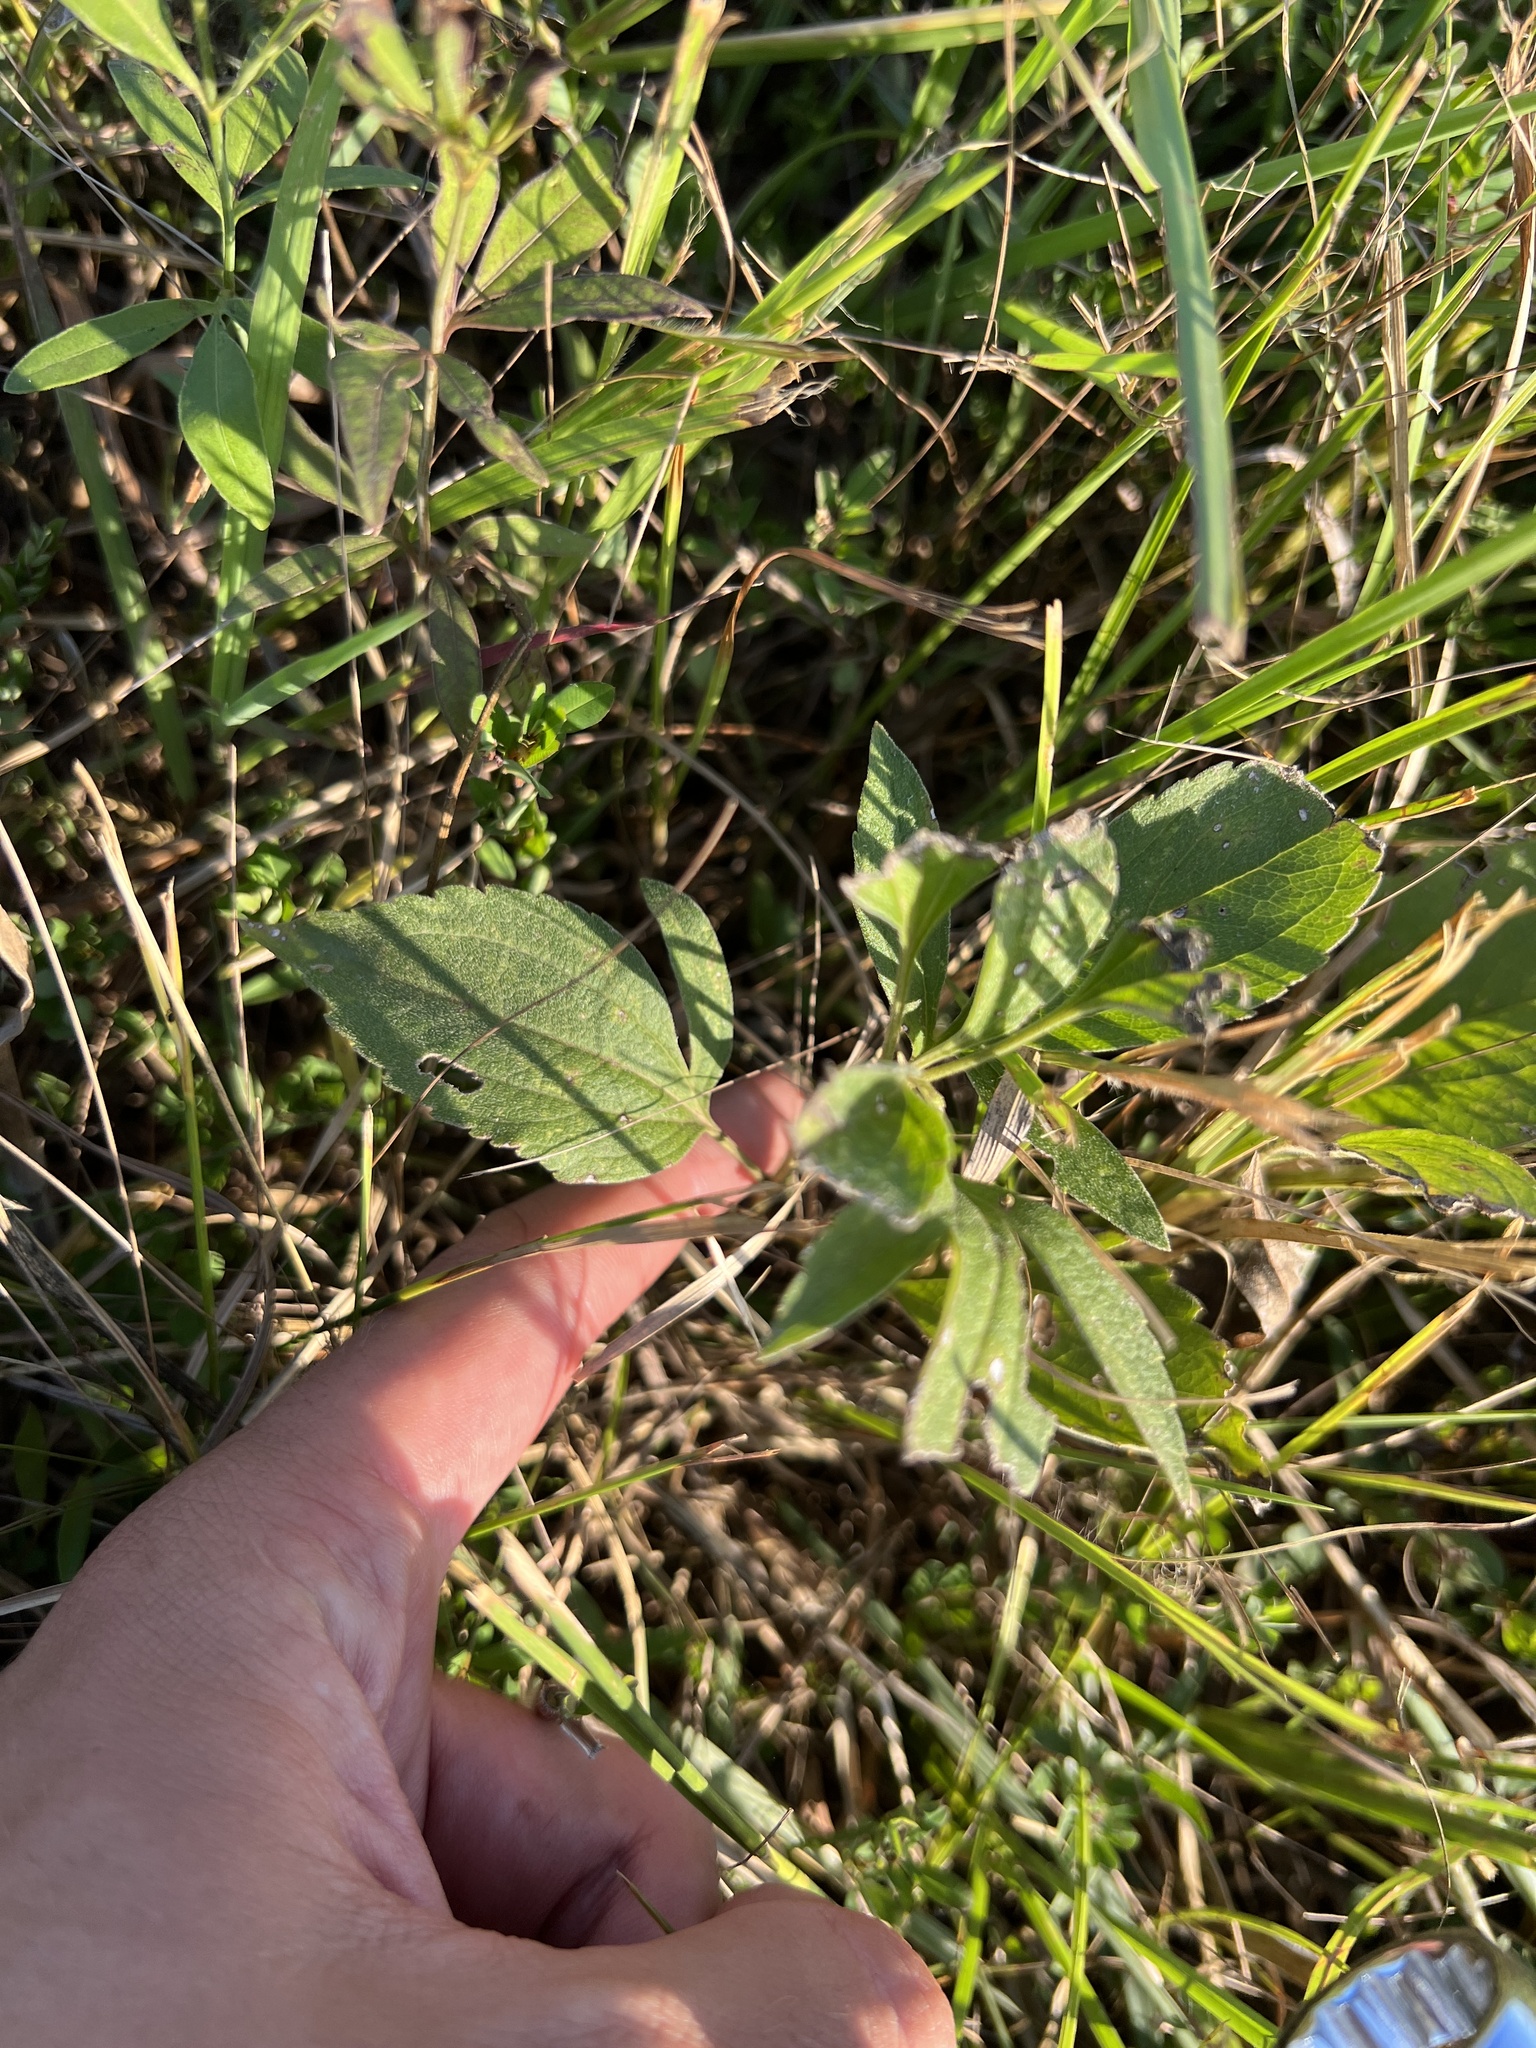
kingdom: Plantae
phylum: Tracheophyta
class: Magnoliopsida
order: Asterales
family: Asteraceae
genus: Rudbeckia
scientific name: Rudbeckia subtomentosa
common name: Sweet coneflower
